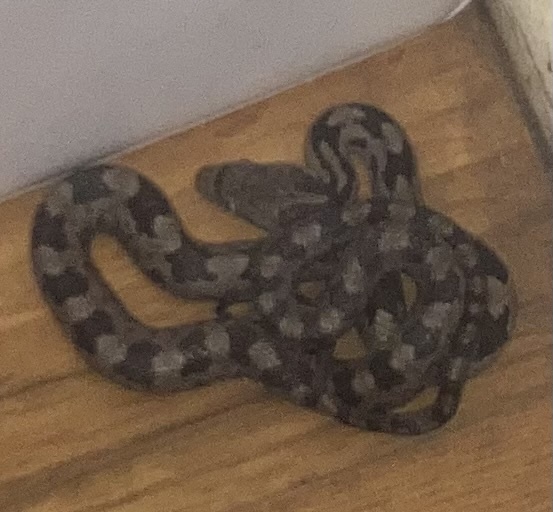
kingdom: Animalia
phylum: Chordata
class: Squamata
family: Colubridae
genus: Pantherophis
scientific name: Pantherophis alleghaniensis
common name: Eastern rat snake
